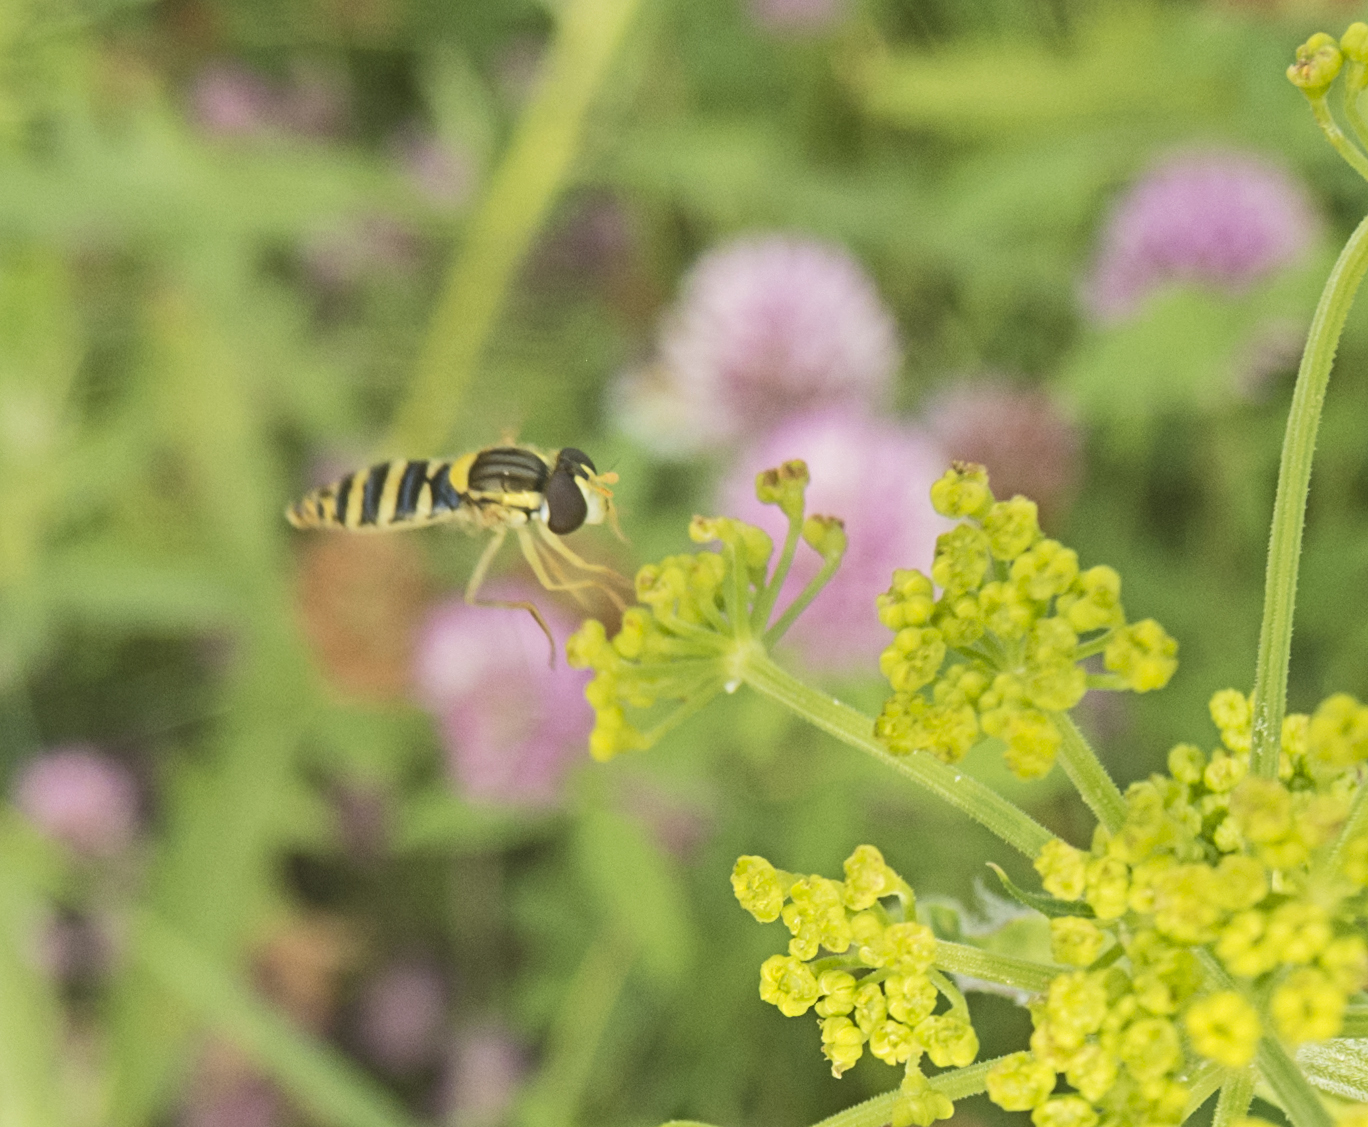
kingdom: Animalia
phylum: Arthropoda
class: Insecta
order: Diptera
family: Syrphidae
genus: Sphaerophoria
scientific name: Sphaerophoria
